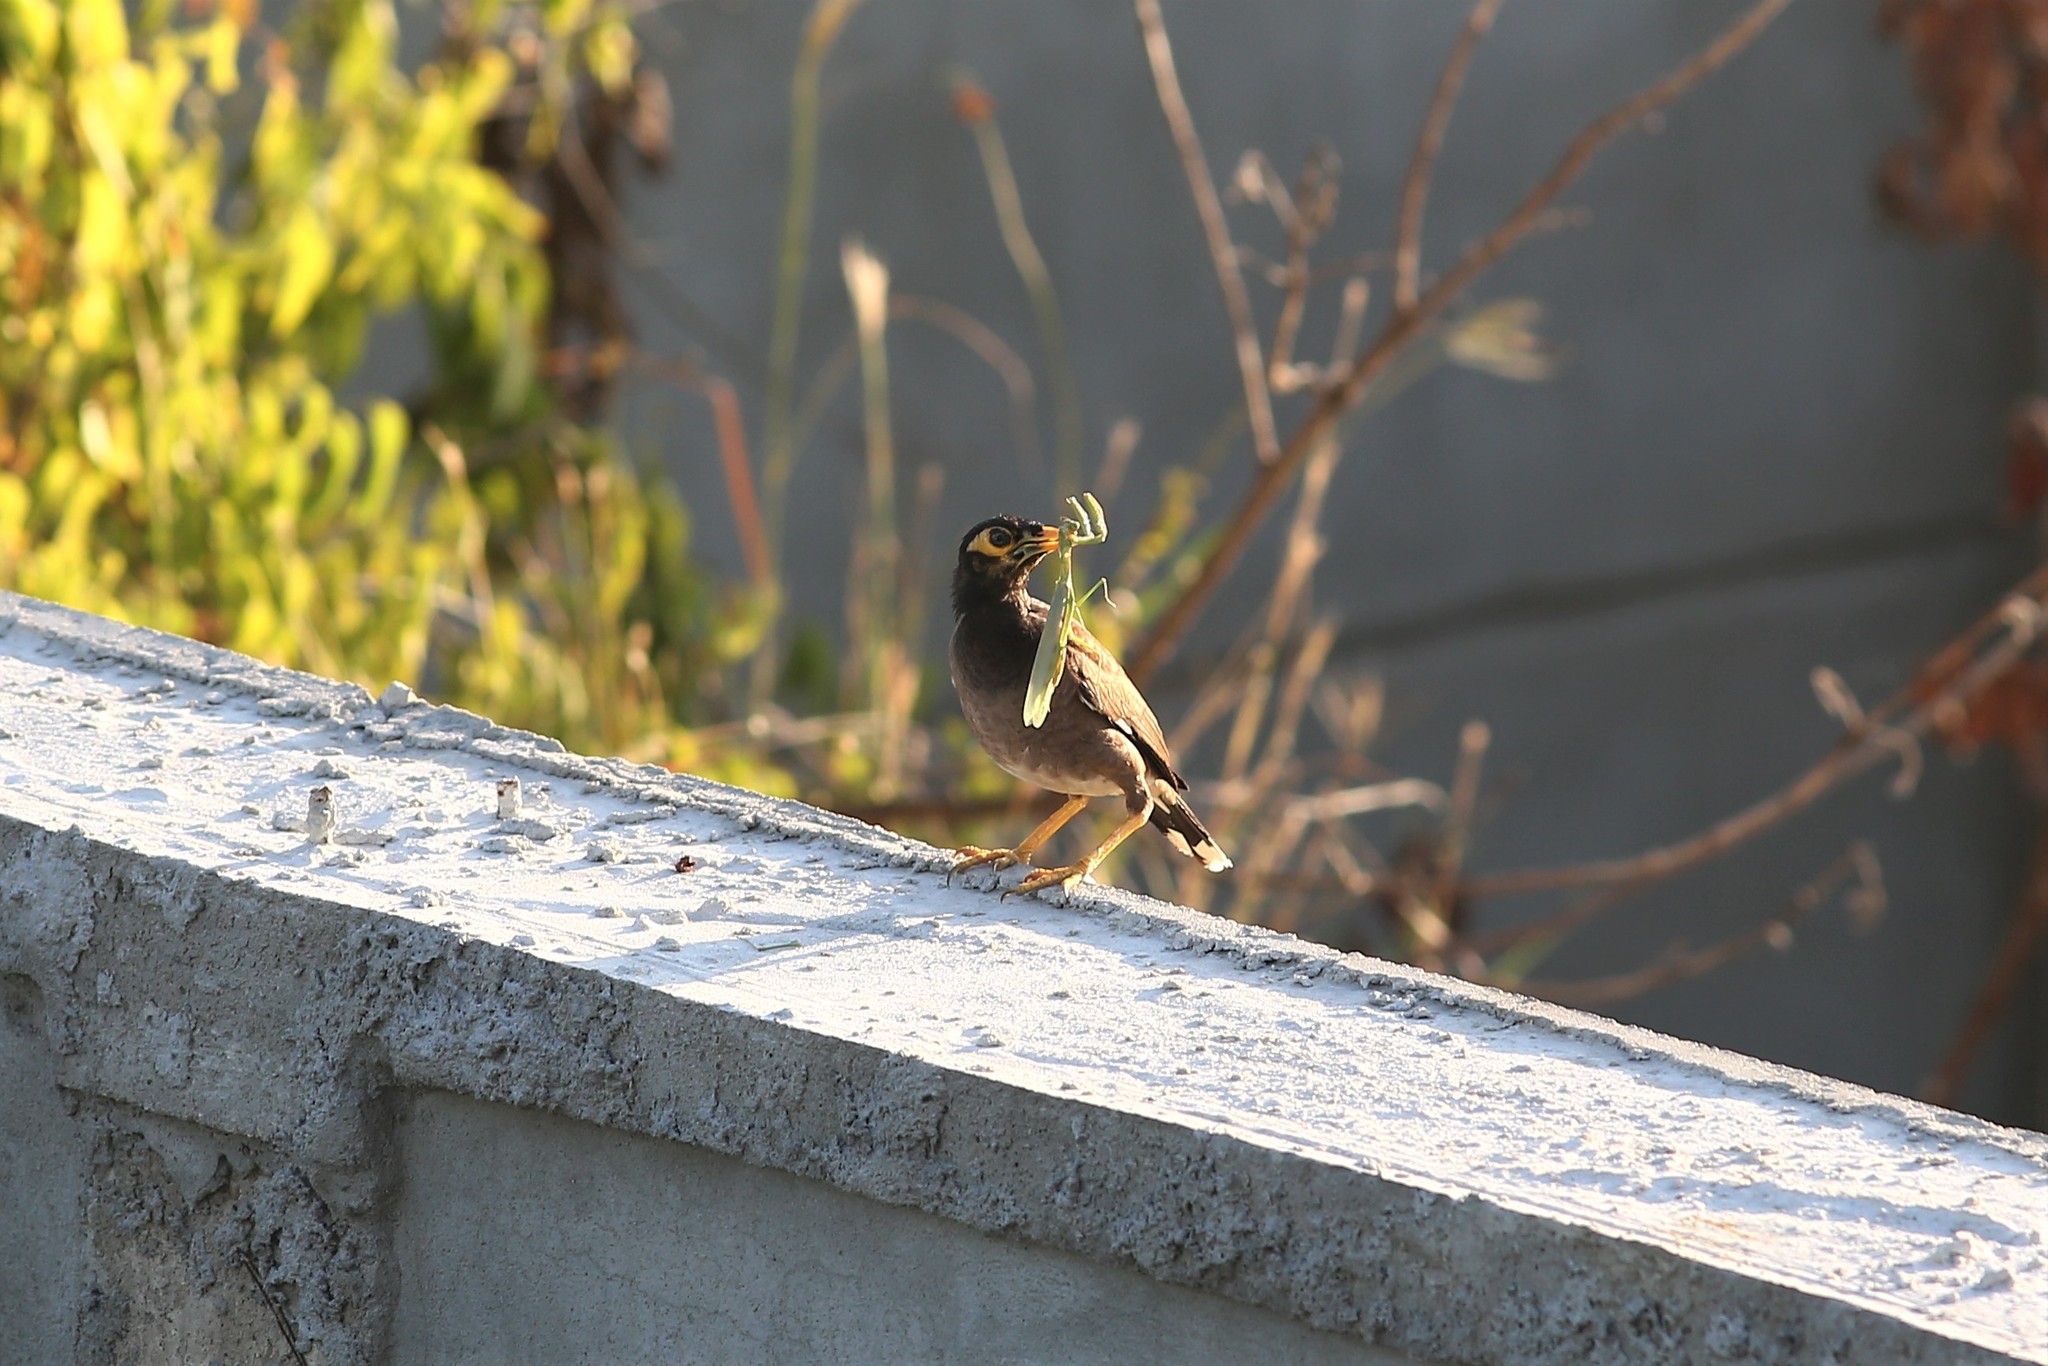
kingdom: Animalia
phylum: Chordata
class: Aves
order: Passeriformes
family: Sturnidae
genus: Acridotheres
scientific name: Acridotheres tristis
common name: Common myna
